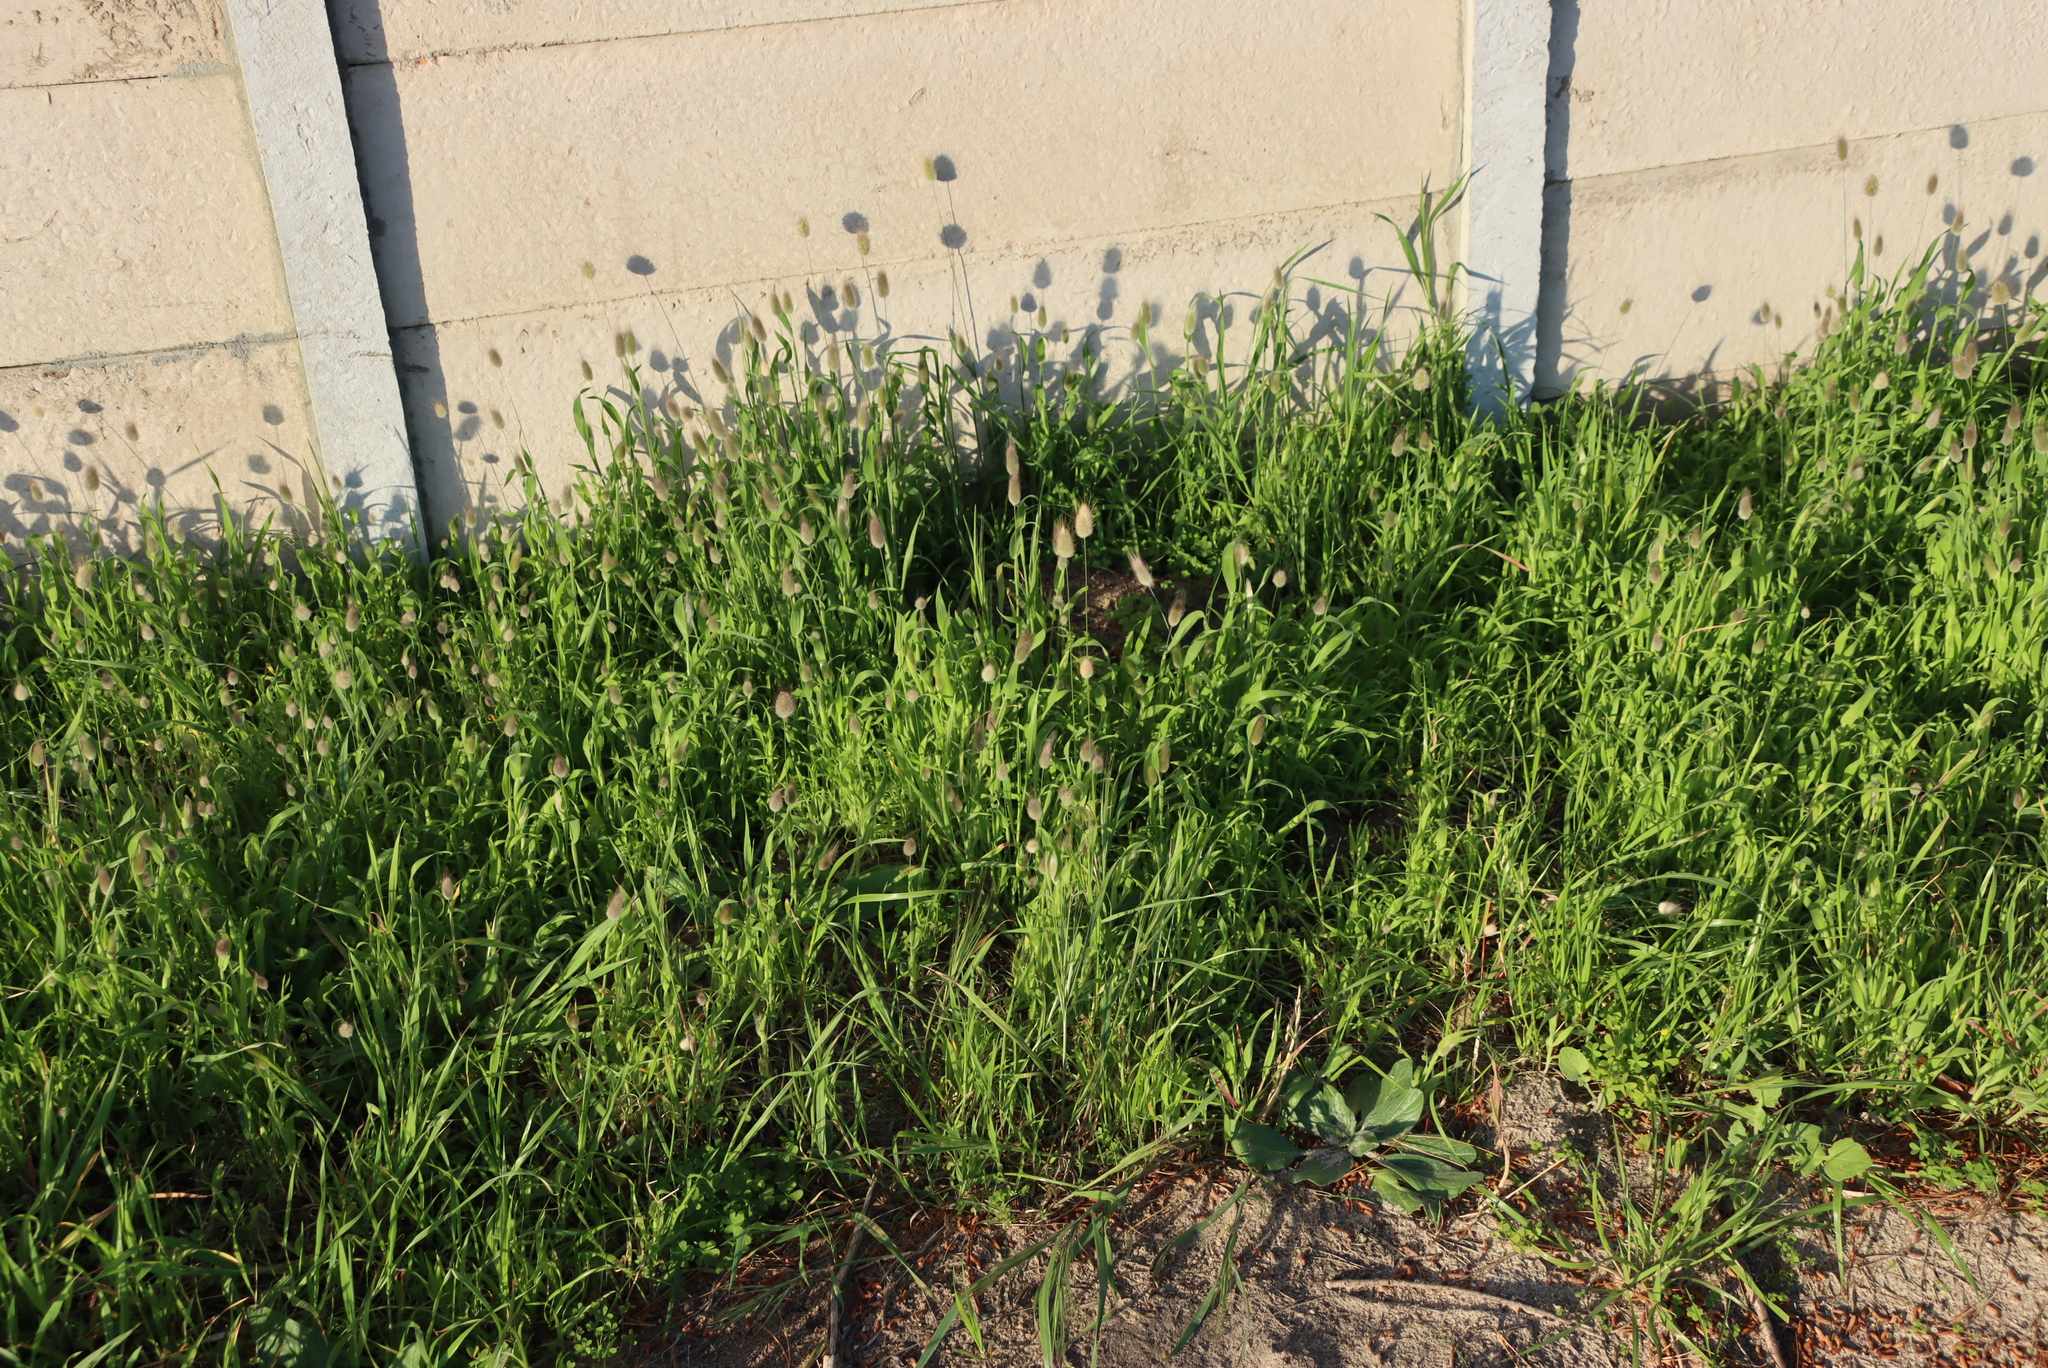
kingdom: Plantae
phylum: Tracheophyta
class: Liliopsida
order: Poales
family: Poaceae
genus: Lagurus
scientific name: Lagurus ovatus
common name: Hare's-tail
